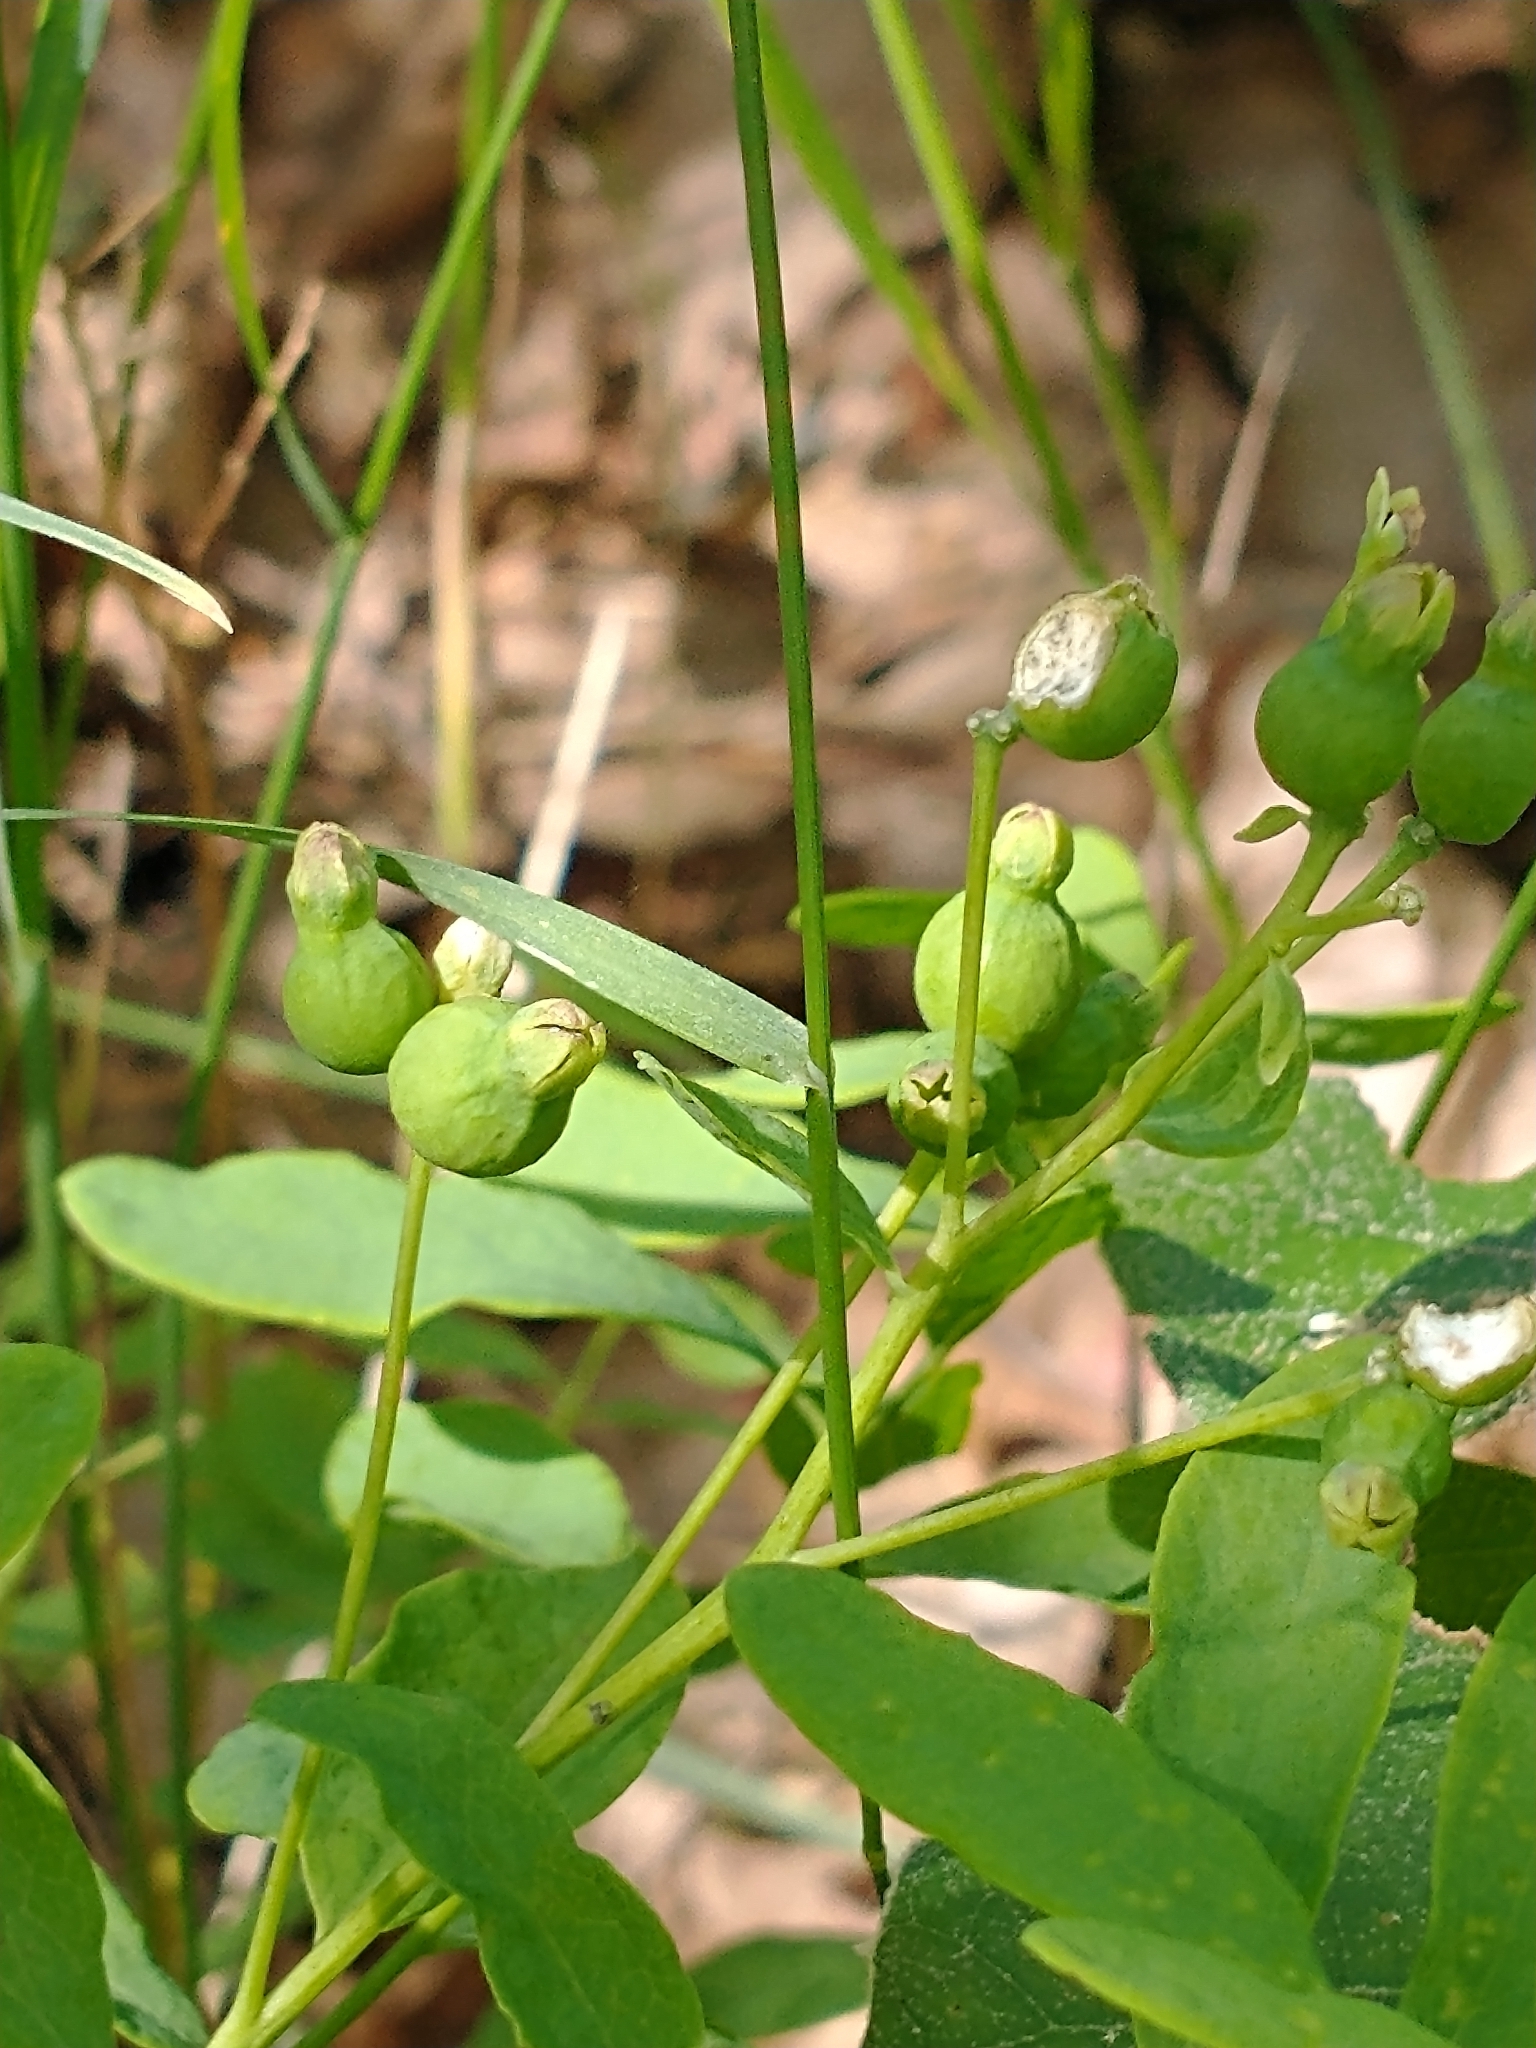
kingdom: Plantae
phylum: Tracheophyta
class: Magnoliopsida
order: Santalales
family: Comandraceae
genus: Comandra
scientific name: Comandra umbellata
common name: Bastard toadflax
